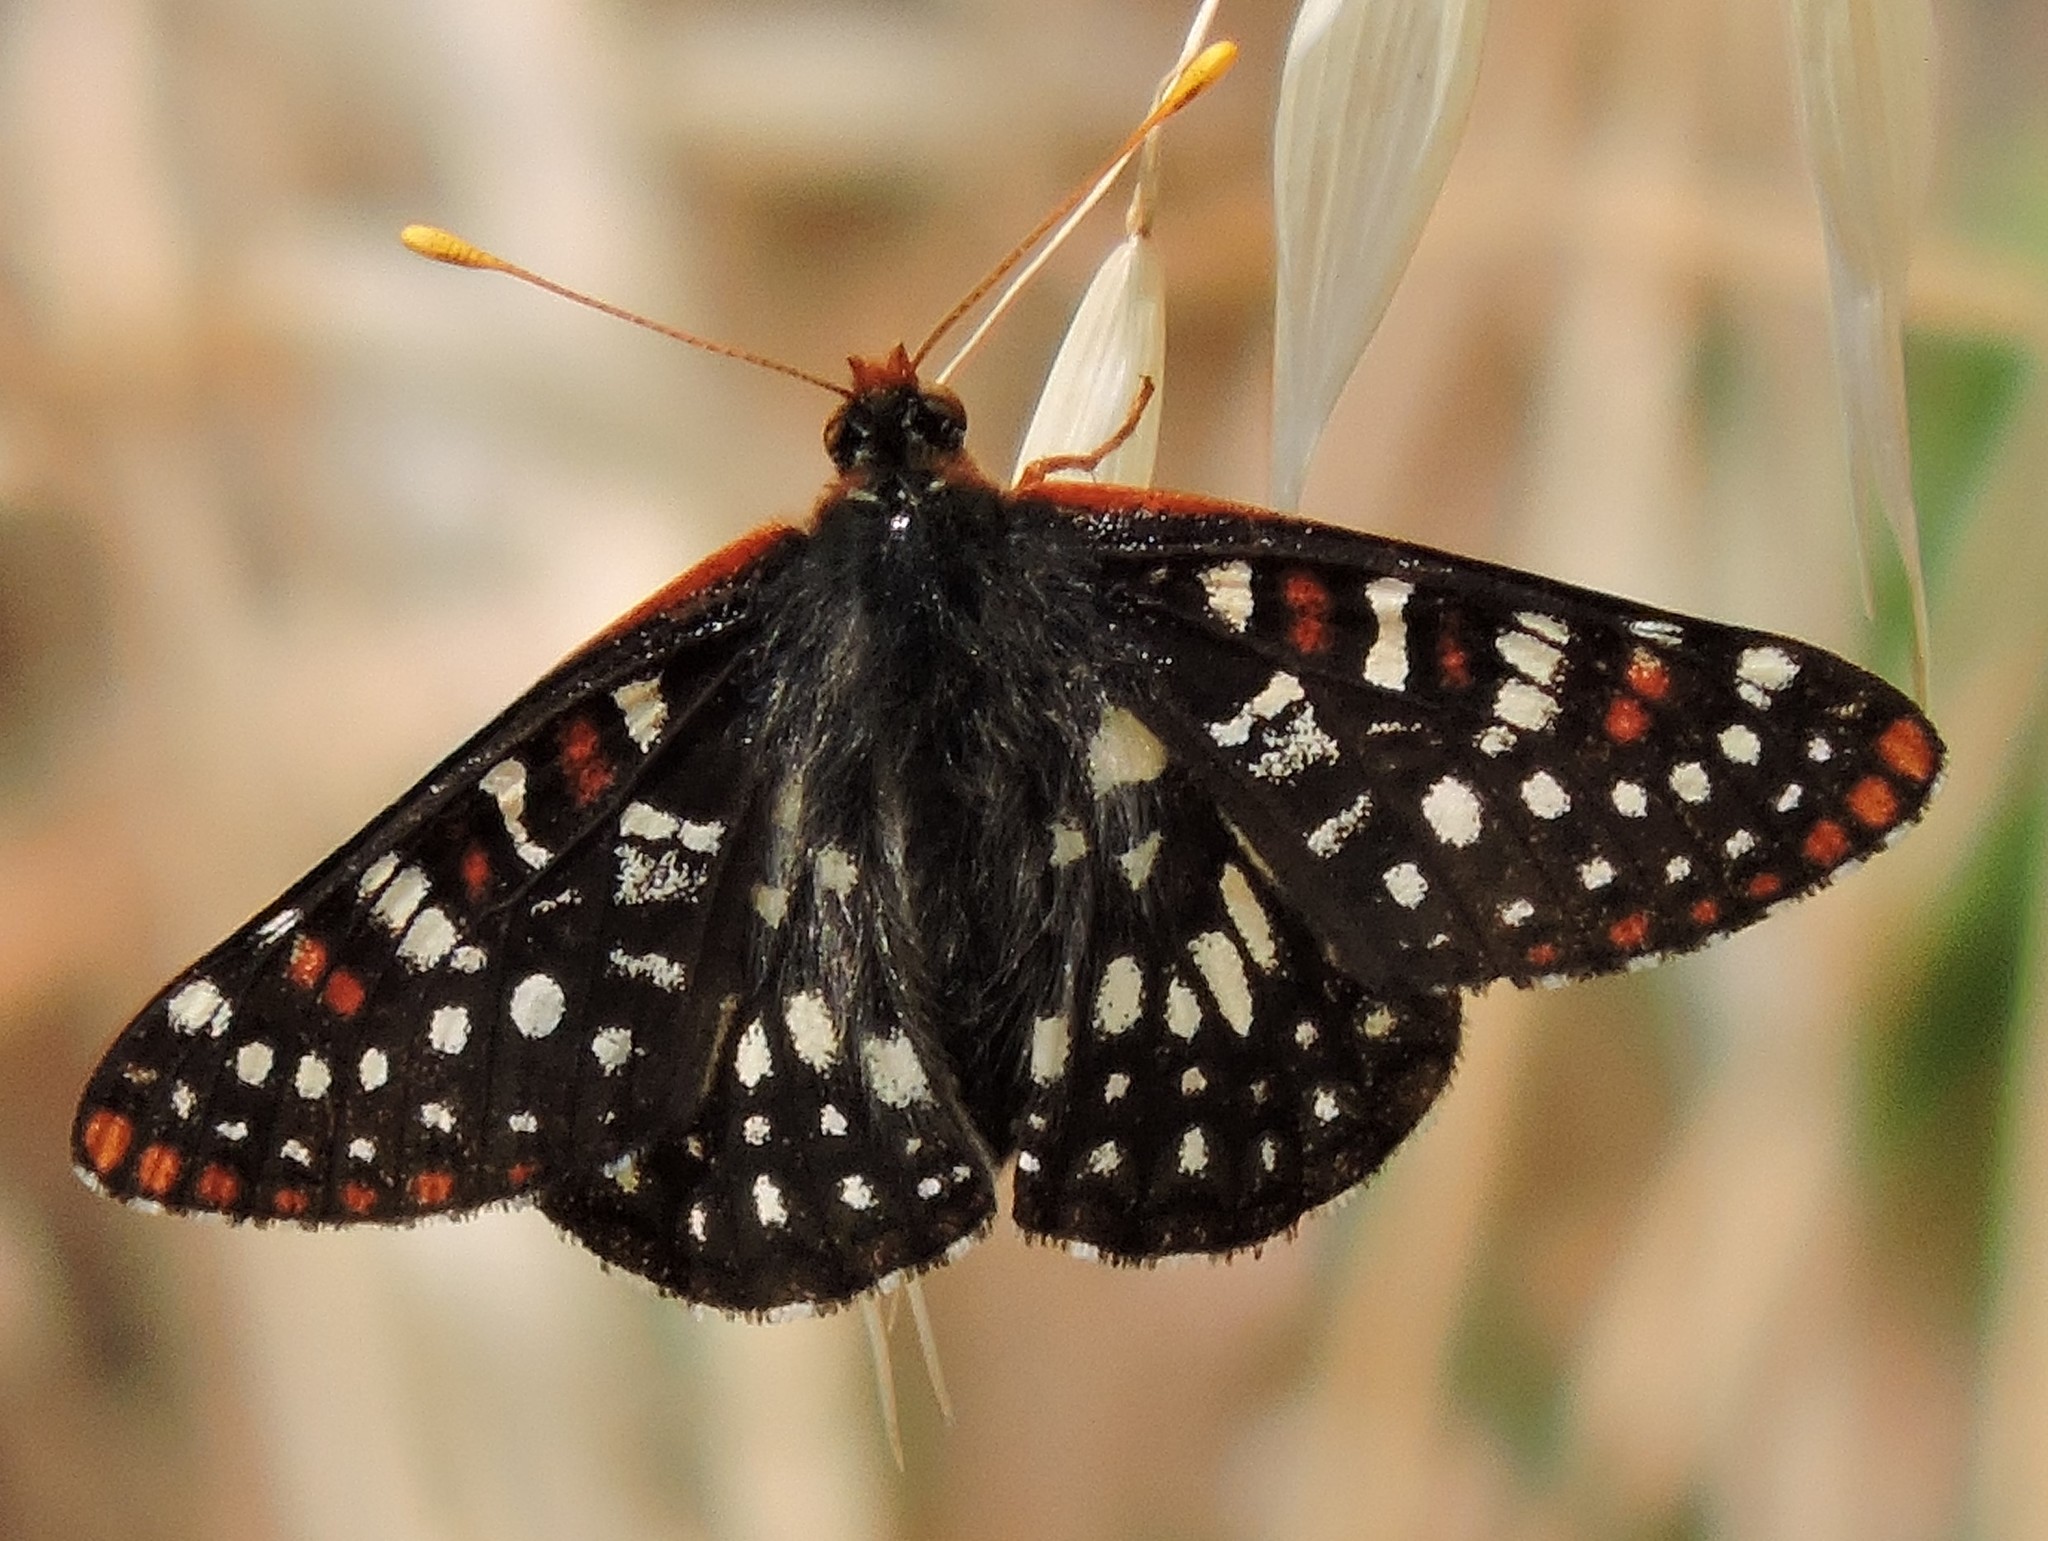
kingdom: Animalia
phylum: Arthropoda
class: Insecta
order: Lepidoptera
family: Nymphalidae
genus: Occidryas
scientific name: Occidryas chalcedona
